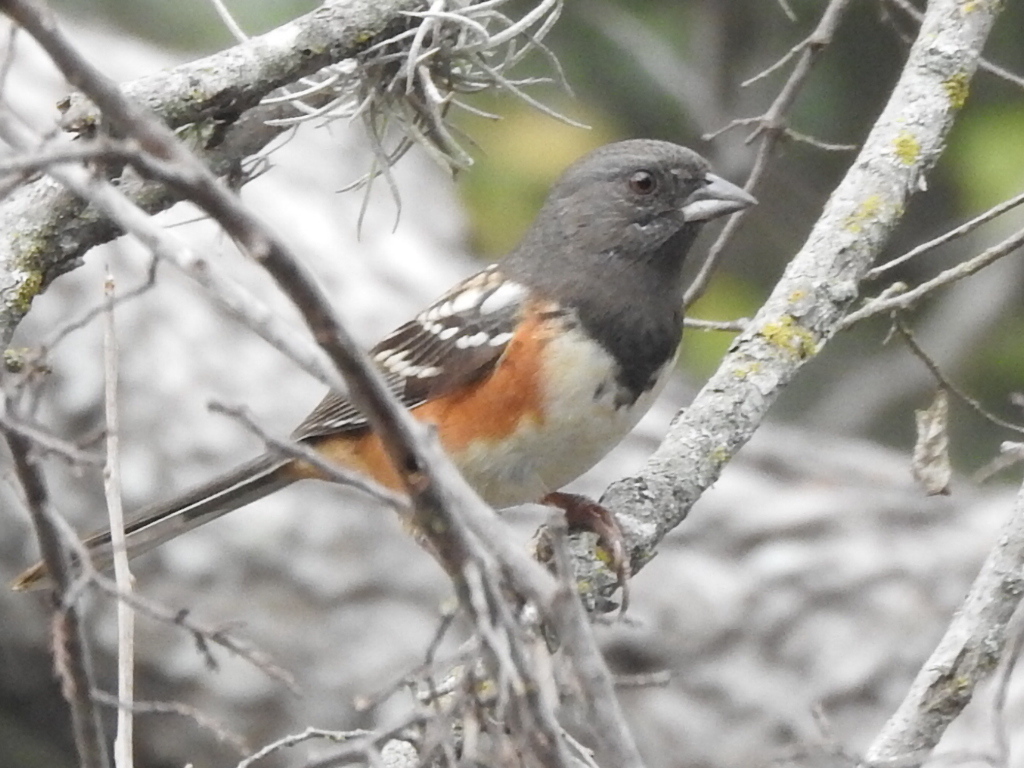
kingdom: Animalia
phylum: Chordata
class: Aves
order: Passeriformes
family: Passerellidae
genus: Pipilo
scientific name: Pipilo maculatus
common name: Spotted towhee
